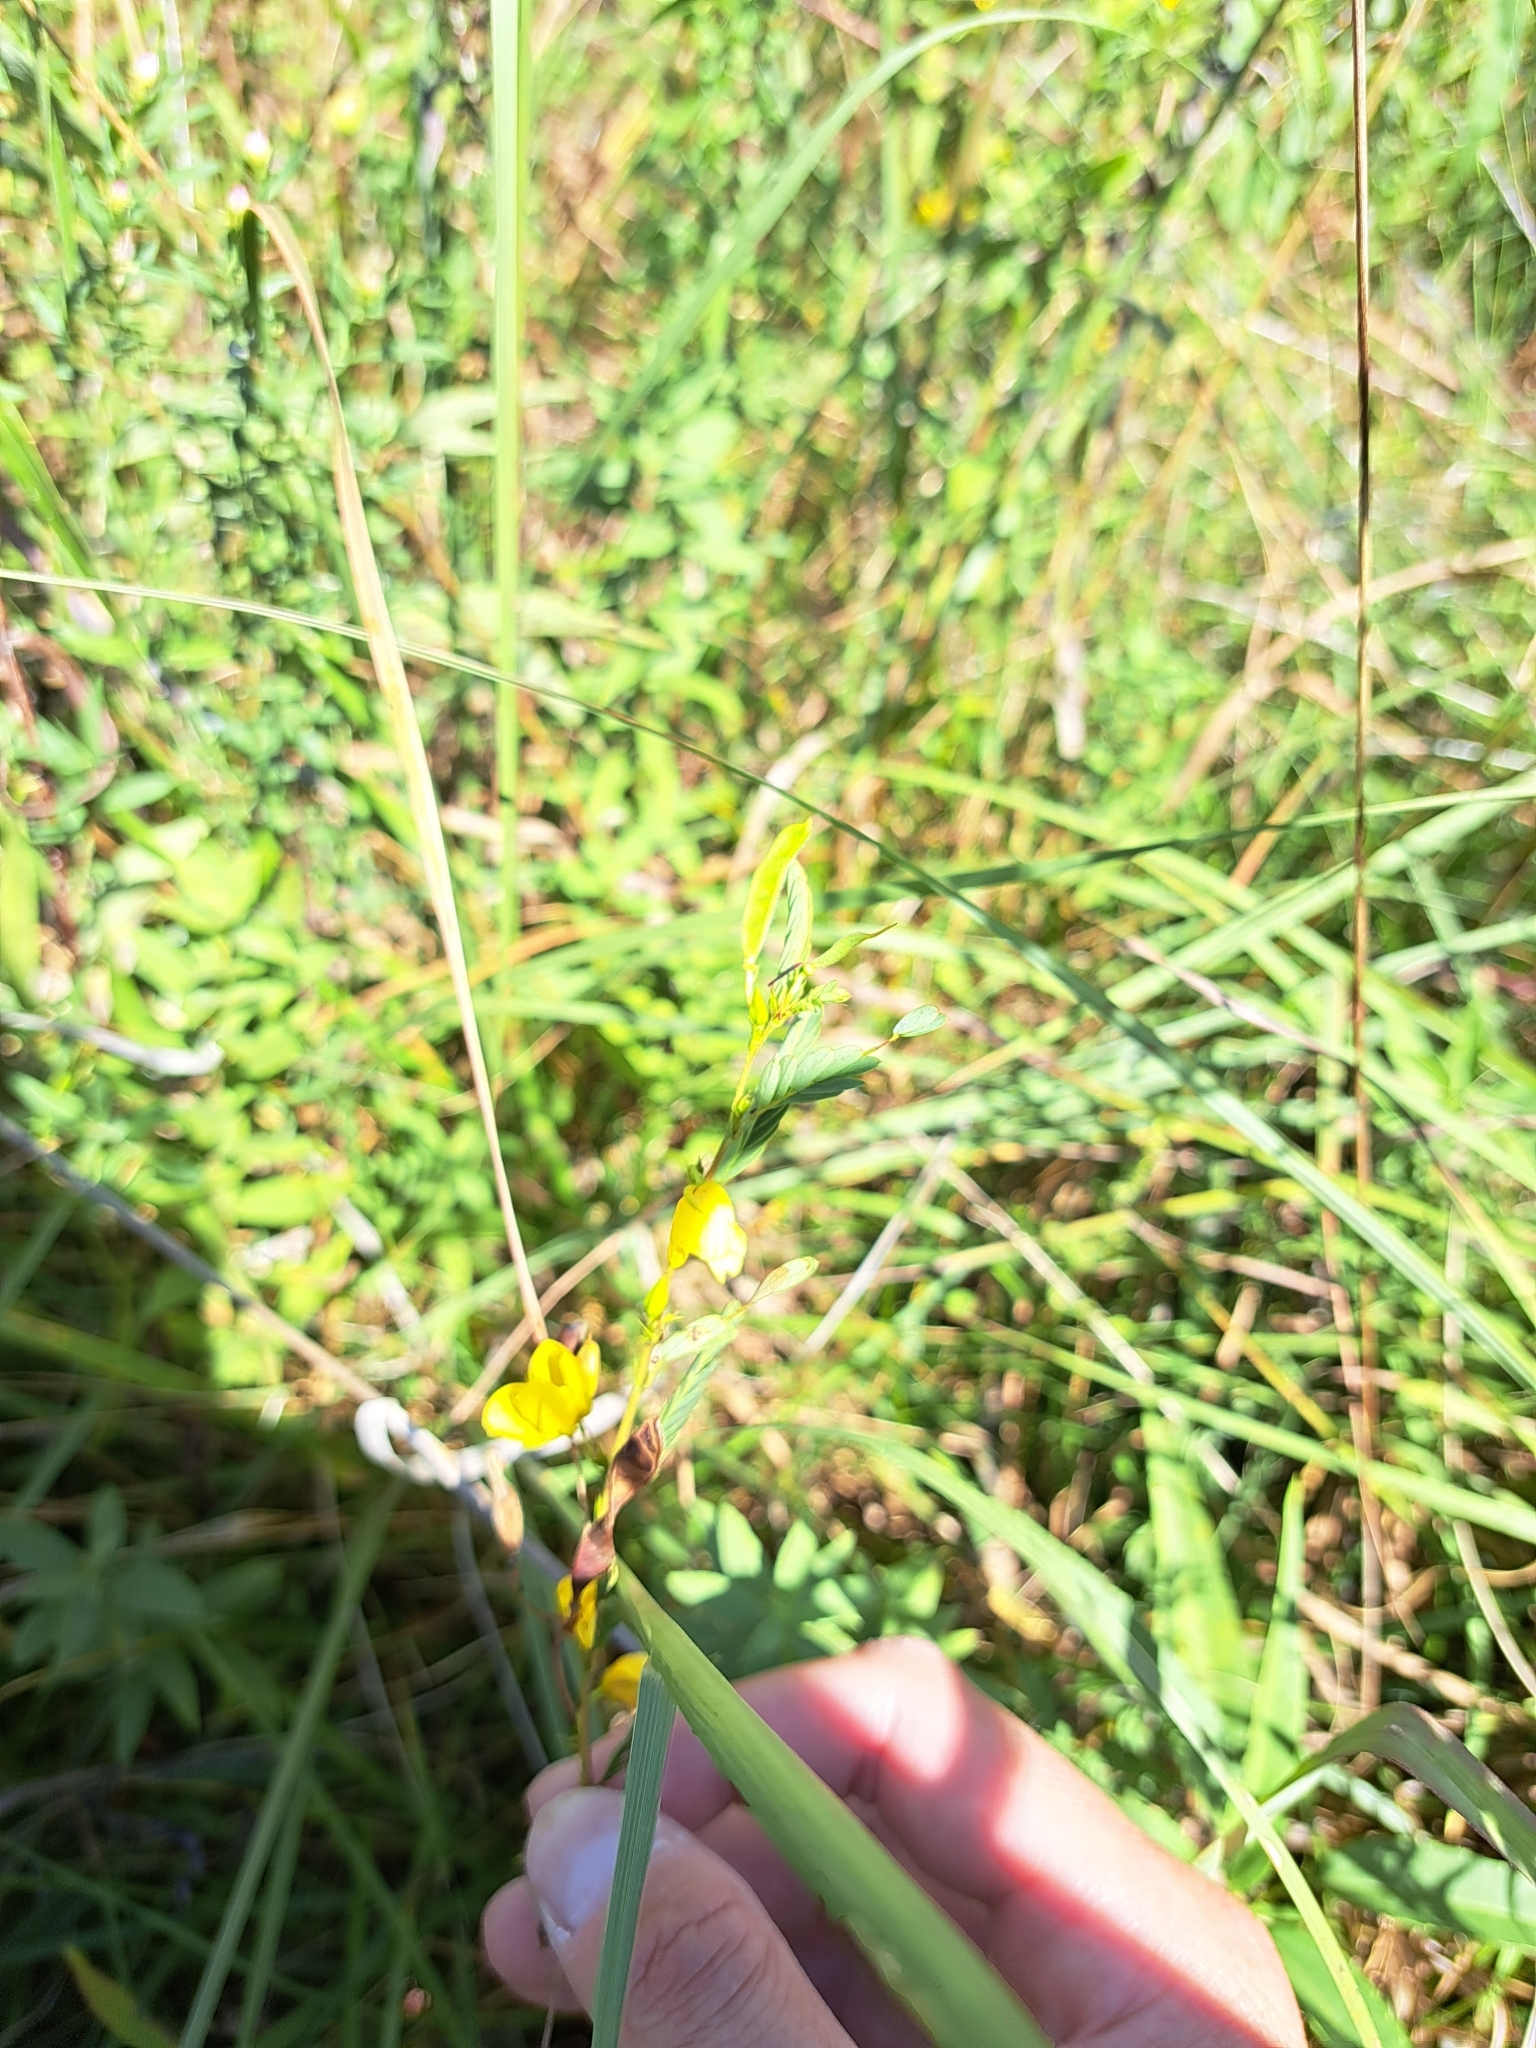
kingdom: Plantae
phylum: Tracheophyta
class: Magnoliopsida
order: Fabales
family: Fabaceae
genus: Chamaecrista
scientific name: Chamaecrista fasciculata
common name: Golden cassia
